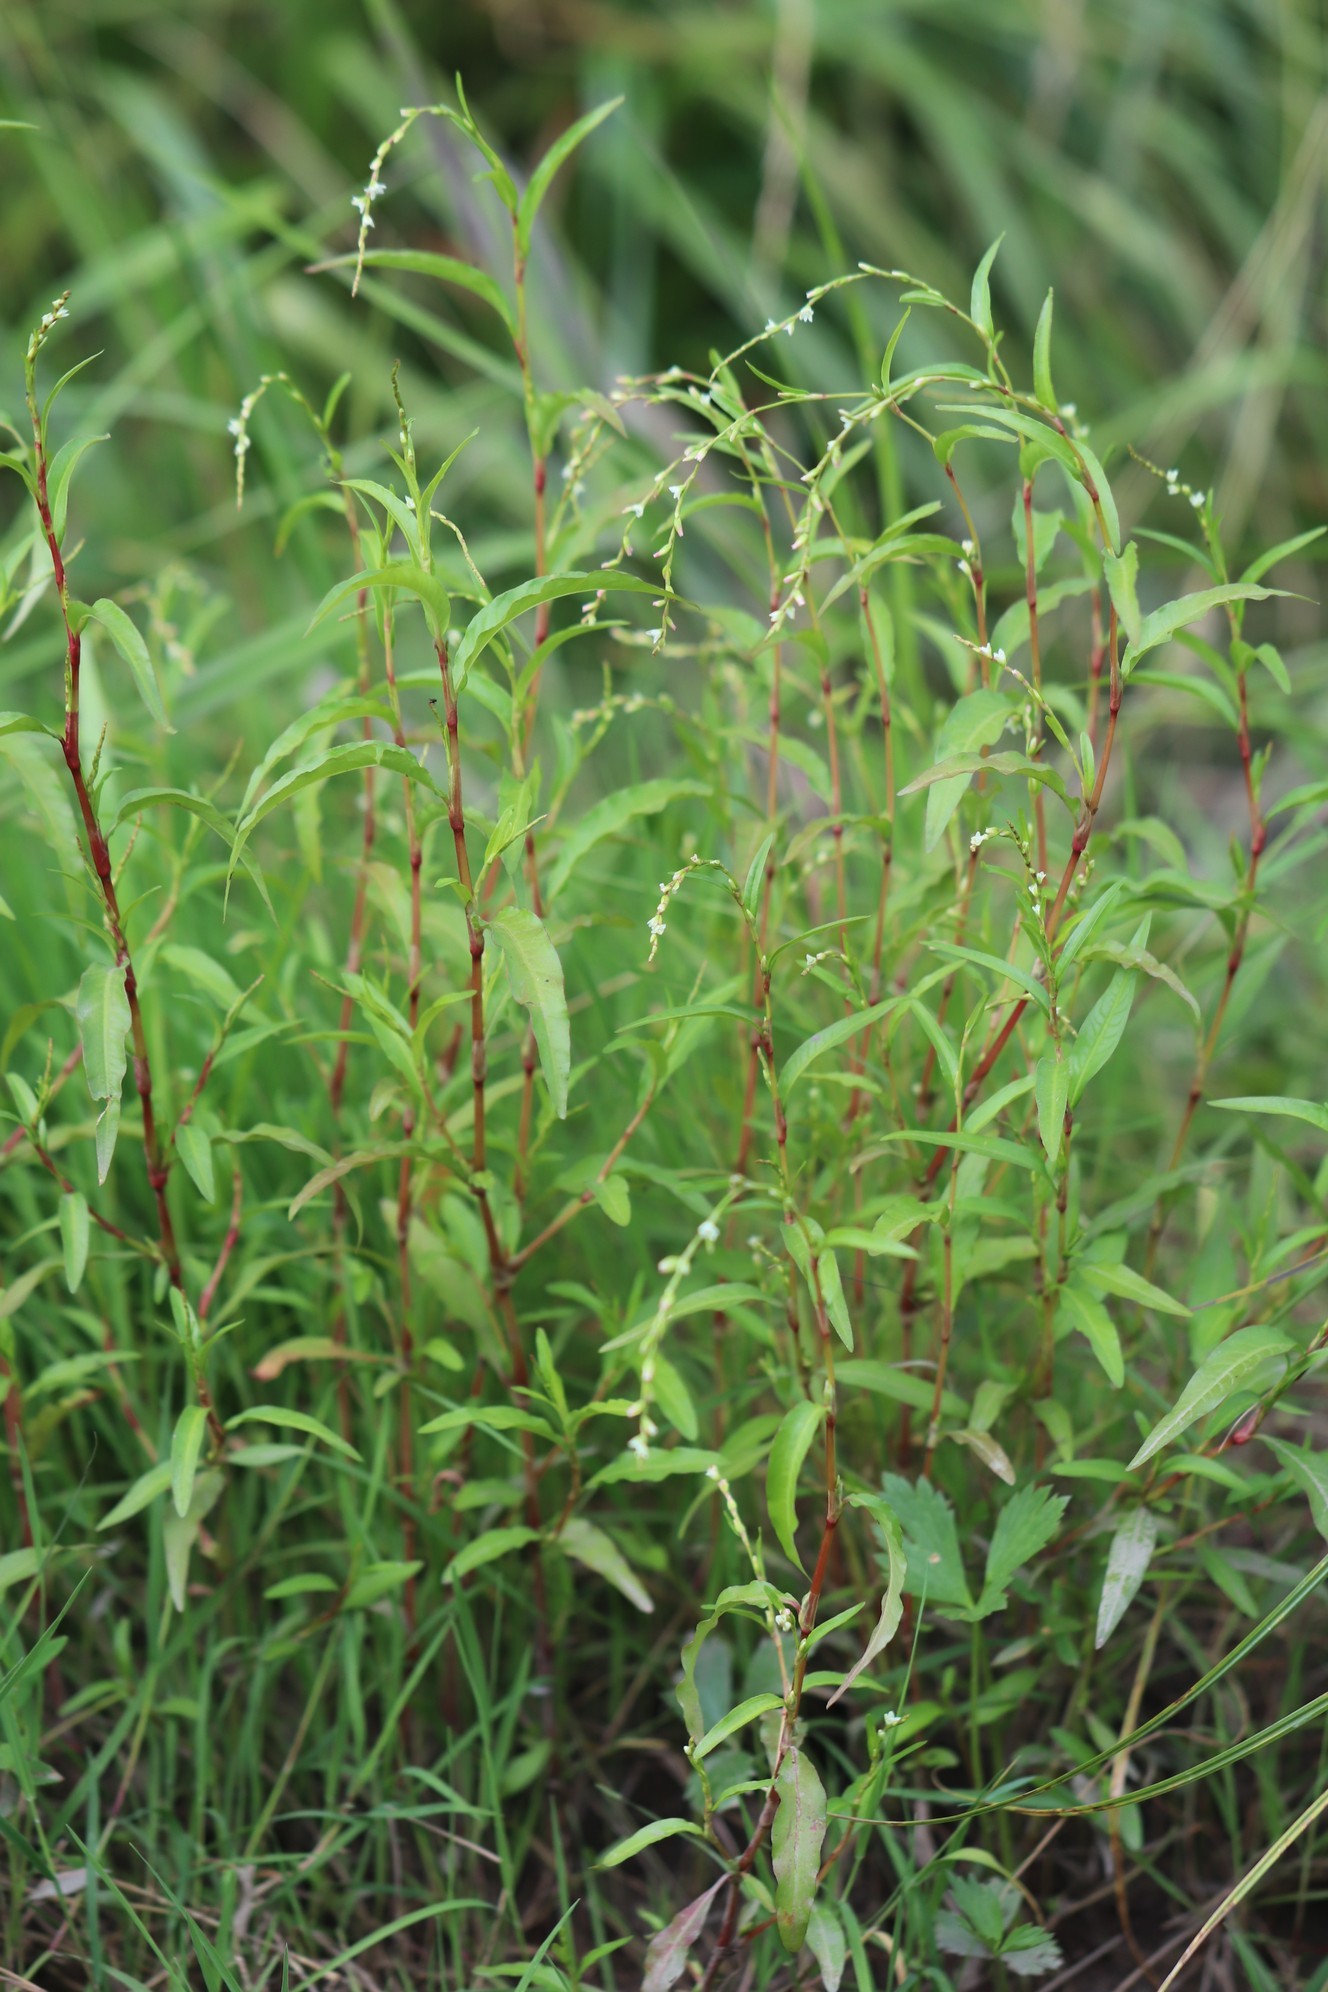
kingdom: Plantae
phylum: Tracheophyta
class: Magnoliopsida
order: Caryophyllales
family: Polygonaceae
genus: Persicaria
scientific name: Persicaria hydropiper
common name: Water-pepper
